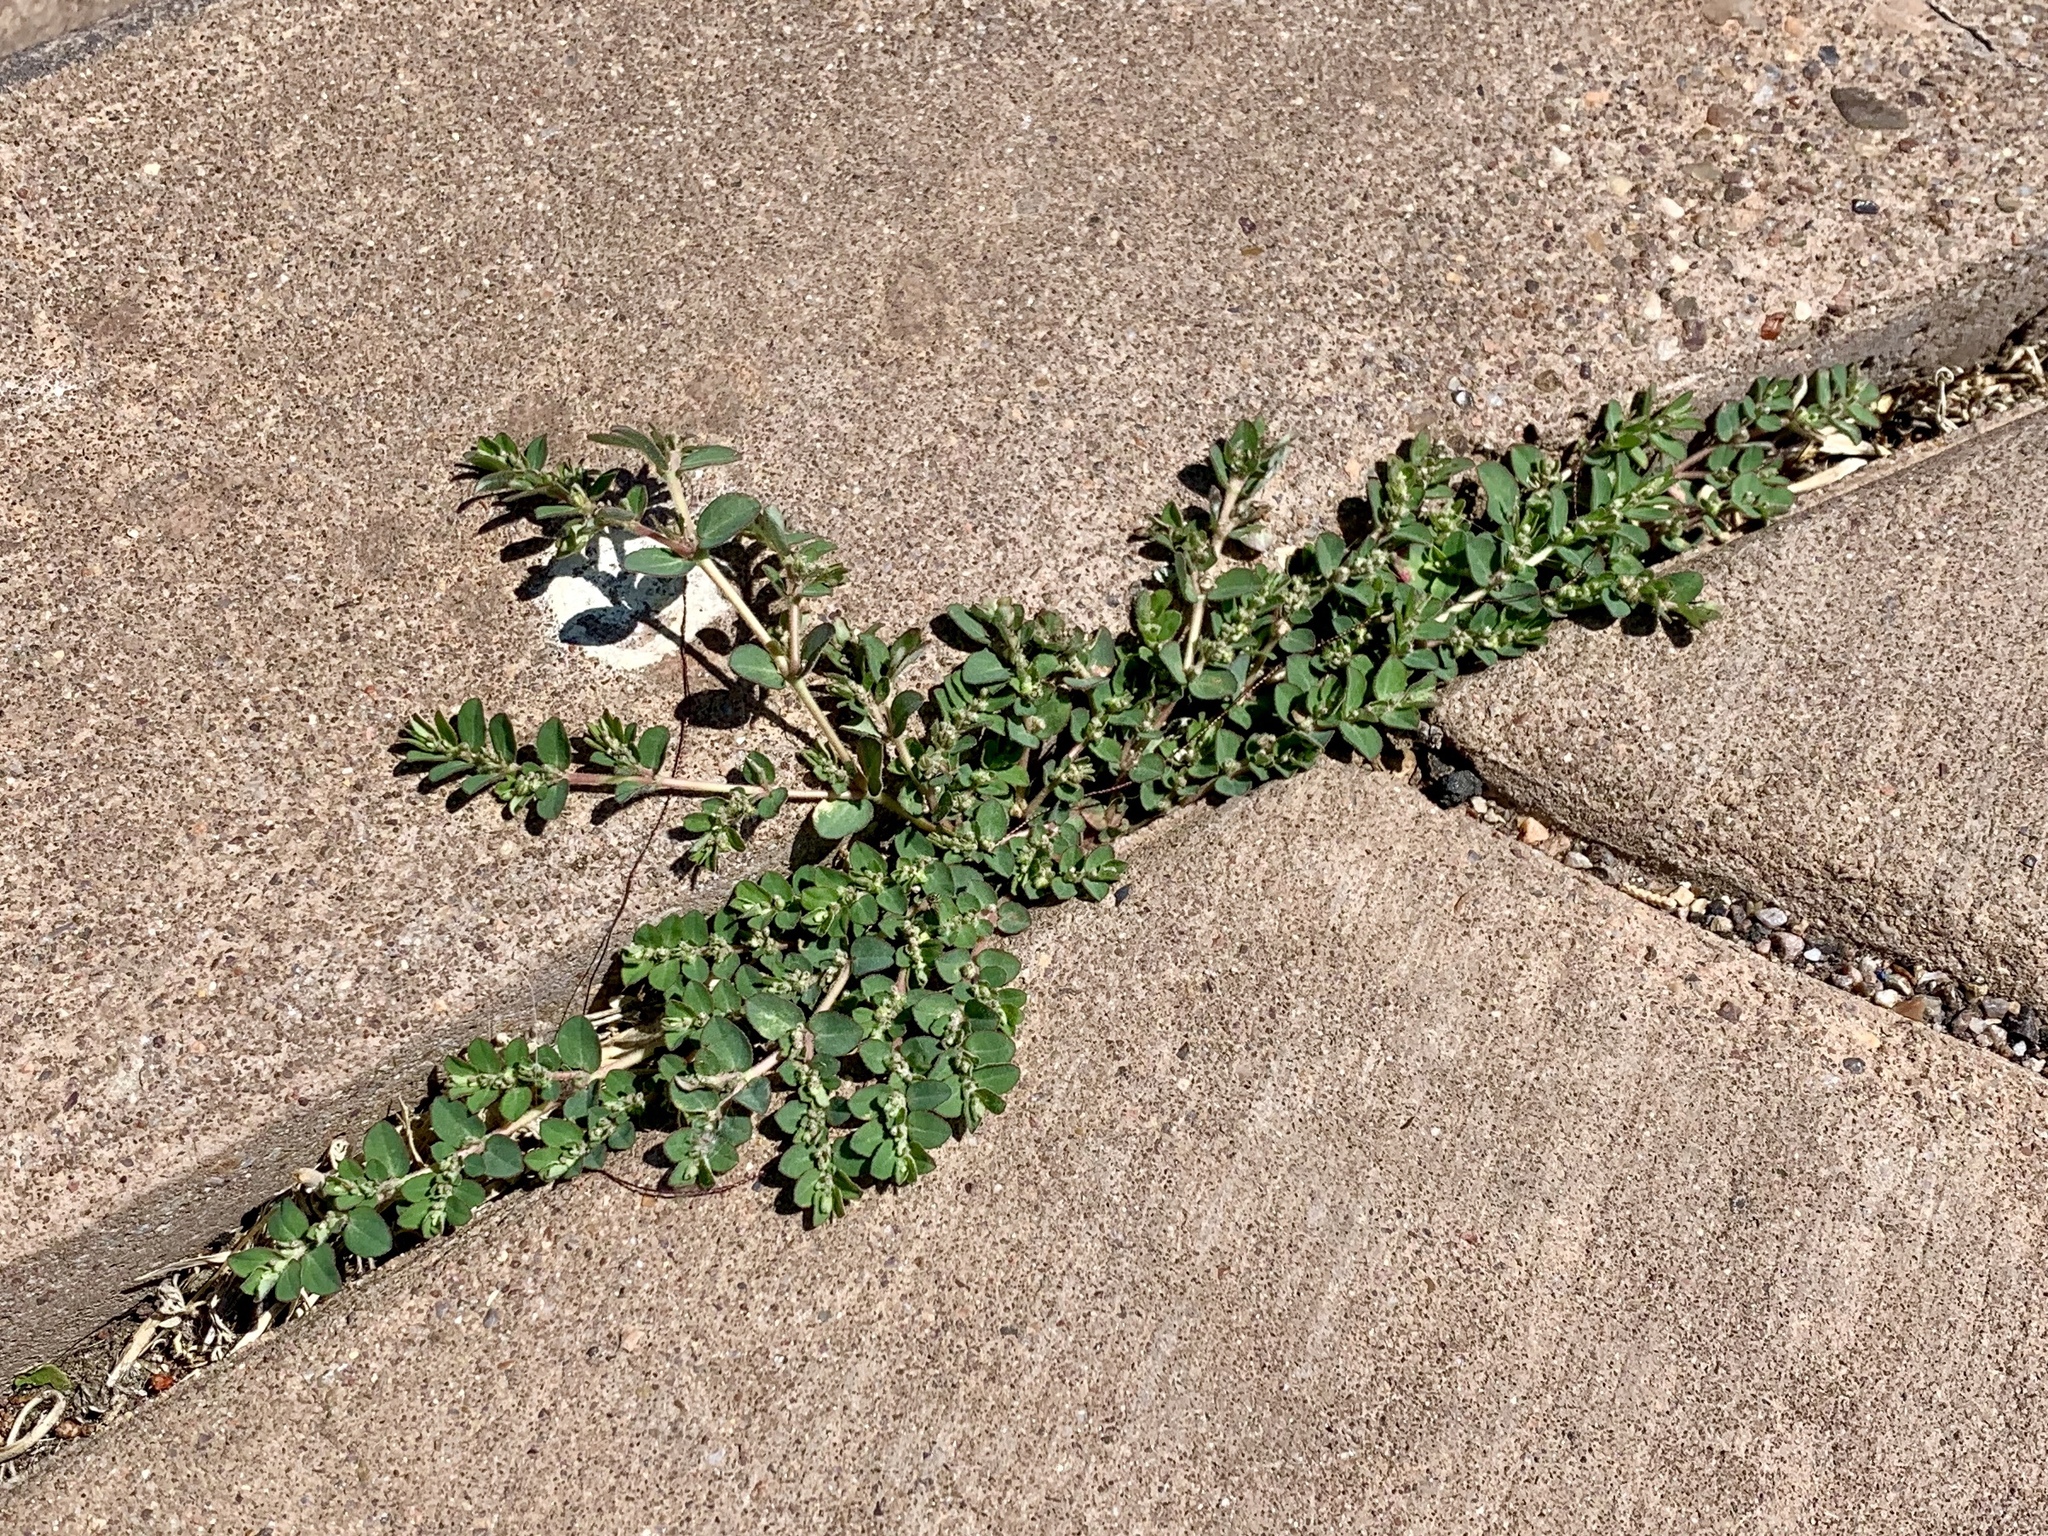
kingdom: Plantae
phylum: Tracheophyta
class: Magnoliopsida
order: Malpighiales
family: Euphorbiaceae
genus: Euphorbia
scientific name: Euphorbia prostrata
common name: Prostrate sandmat
